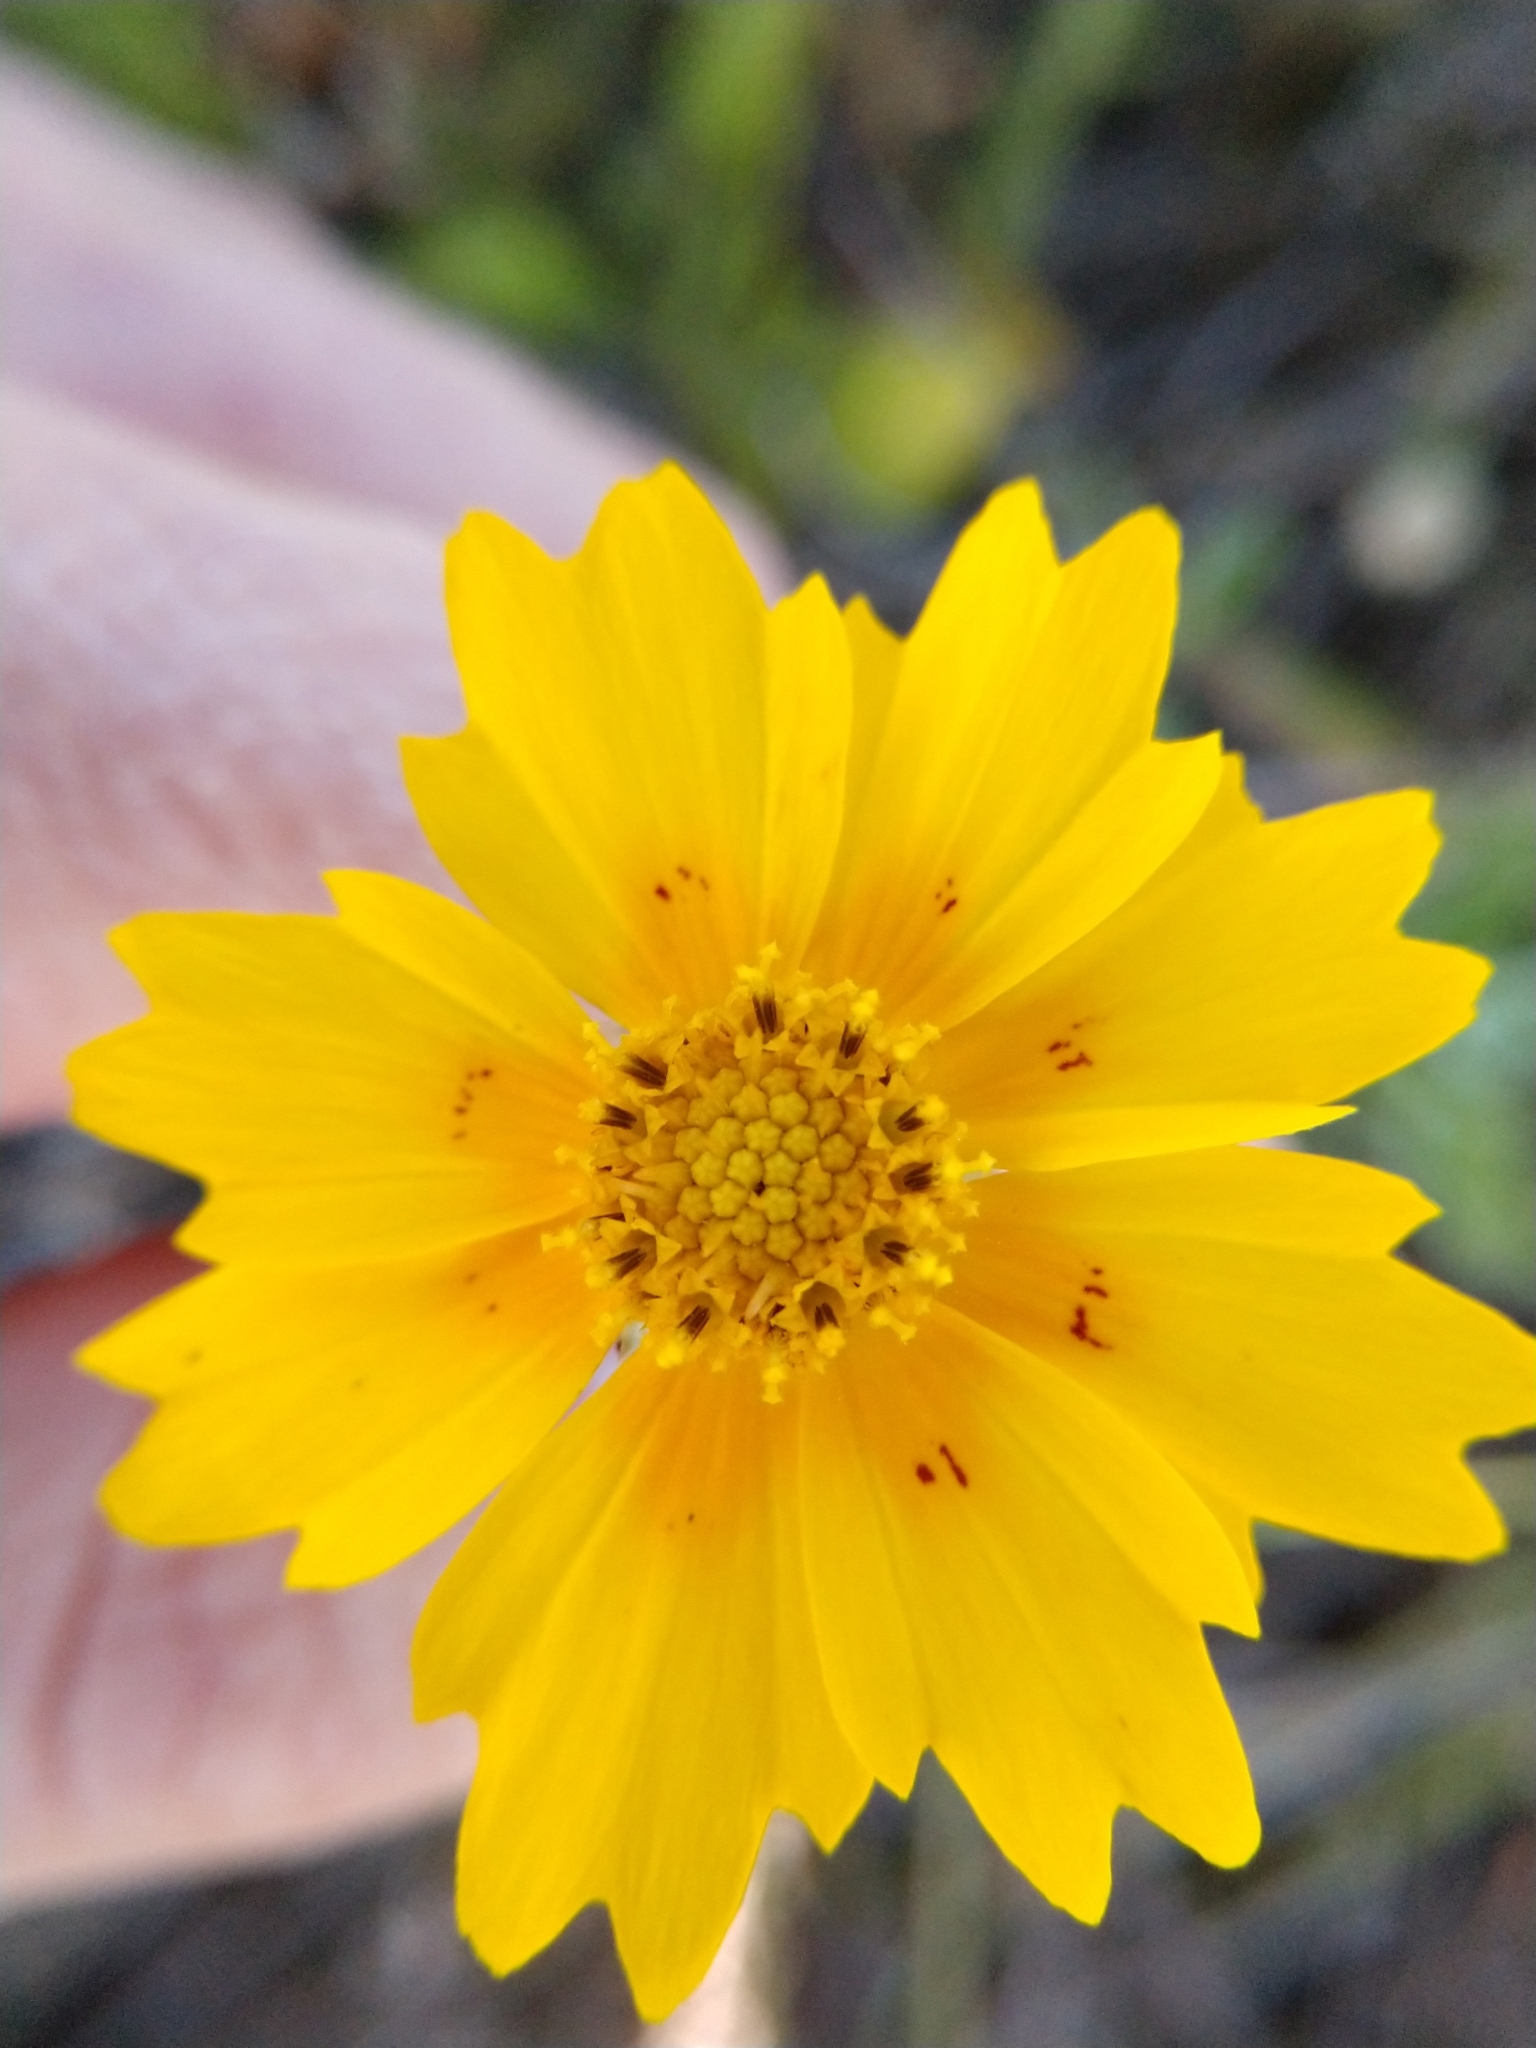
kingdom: Plantae
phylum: Tracheophyta
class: Magnoliopsida
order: Asterales
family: Asteraceae
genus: Coreopsis
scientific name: Coreopsis nuecensis
